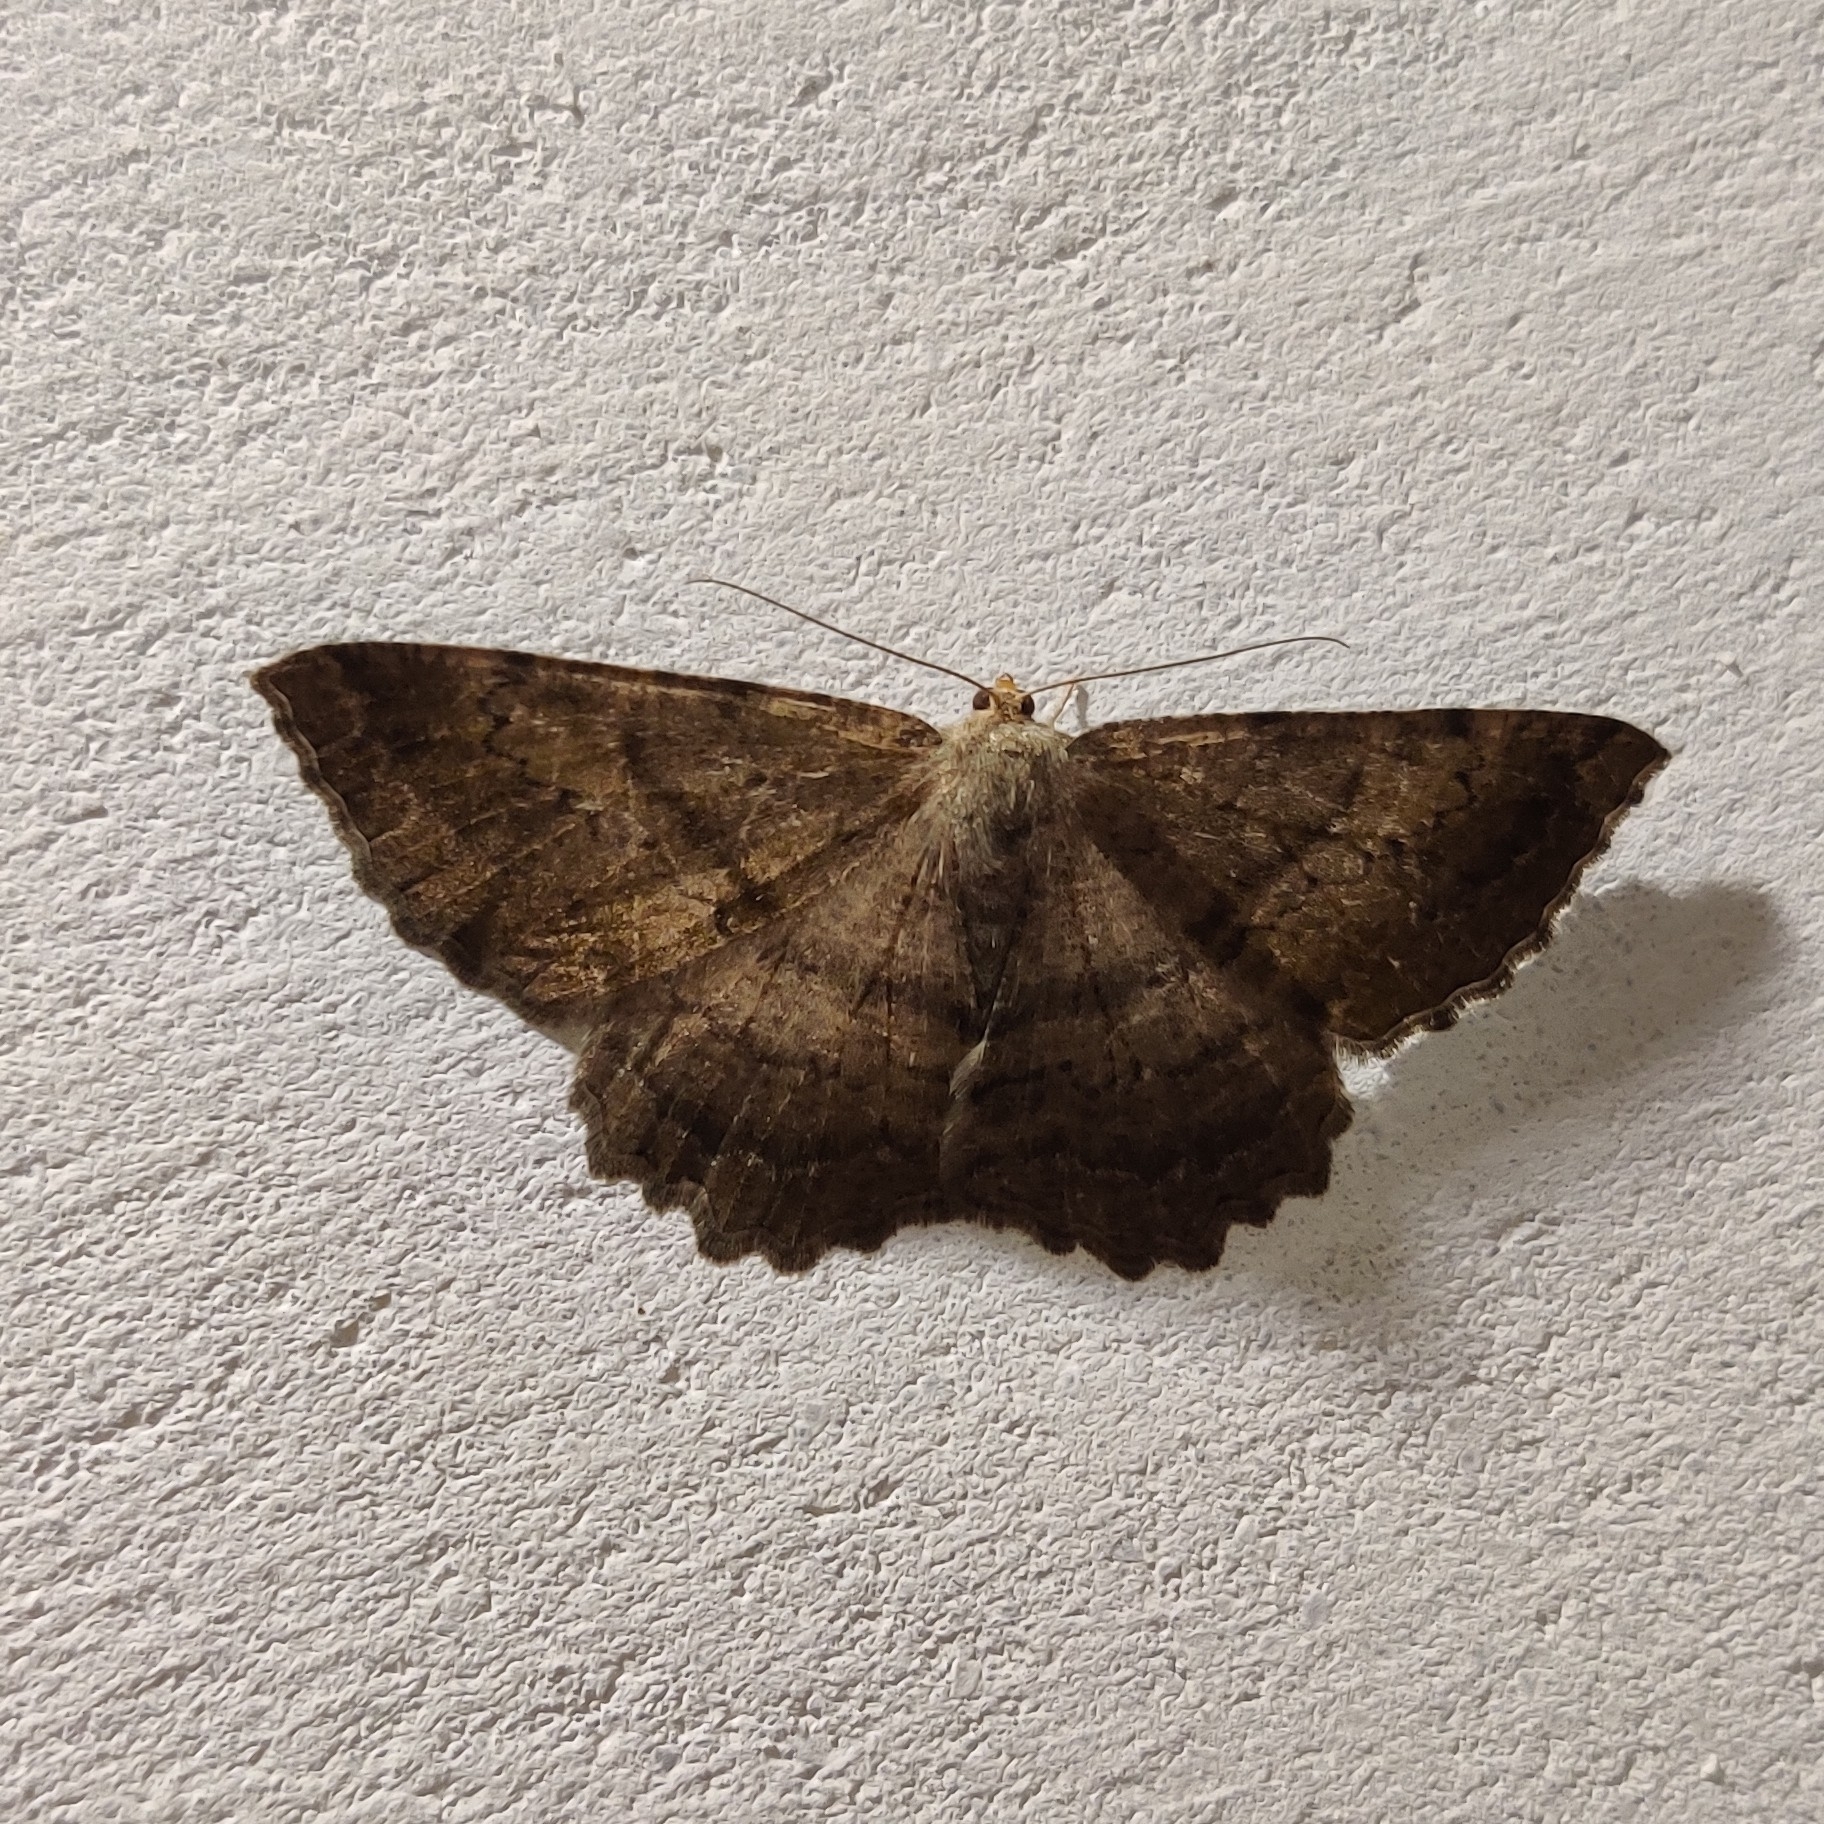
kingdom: Animalia
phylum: Arthropoda
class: Insecta
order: Lepidoptera
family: Geometridae
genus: Xerodes
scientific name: Xerodes ypsaria
